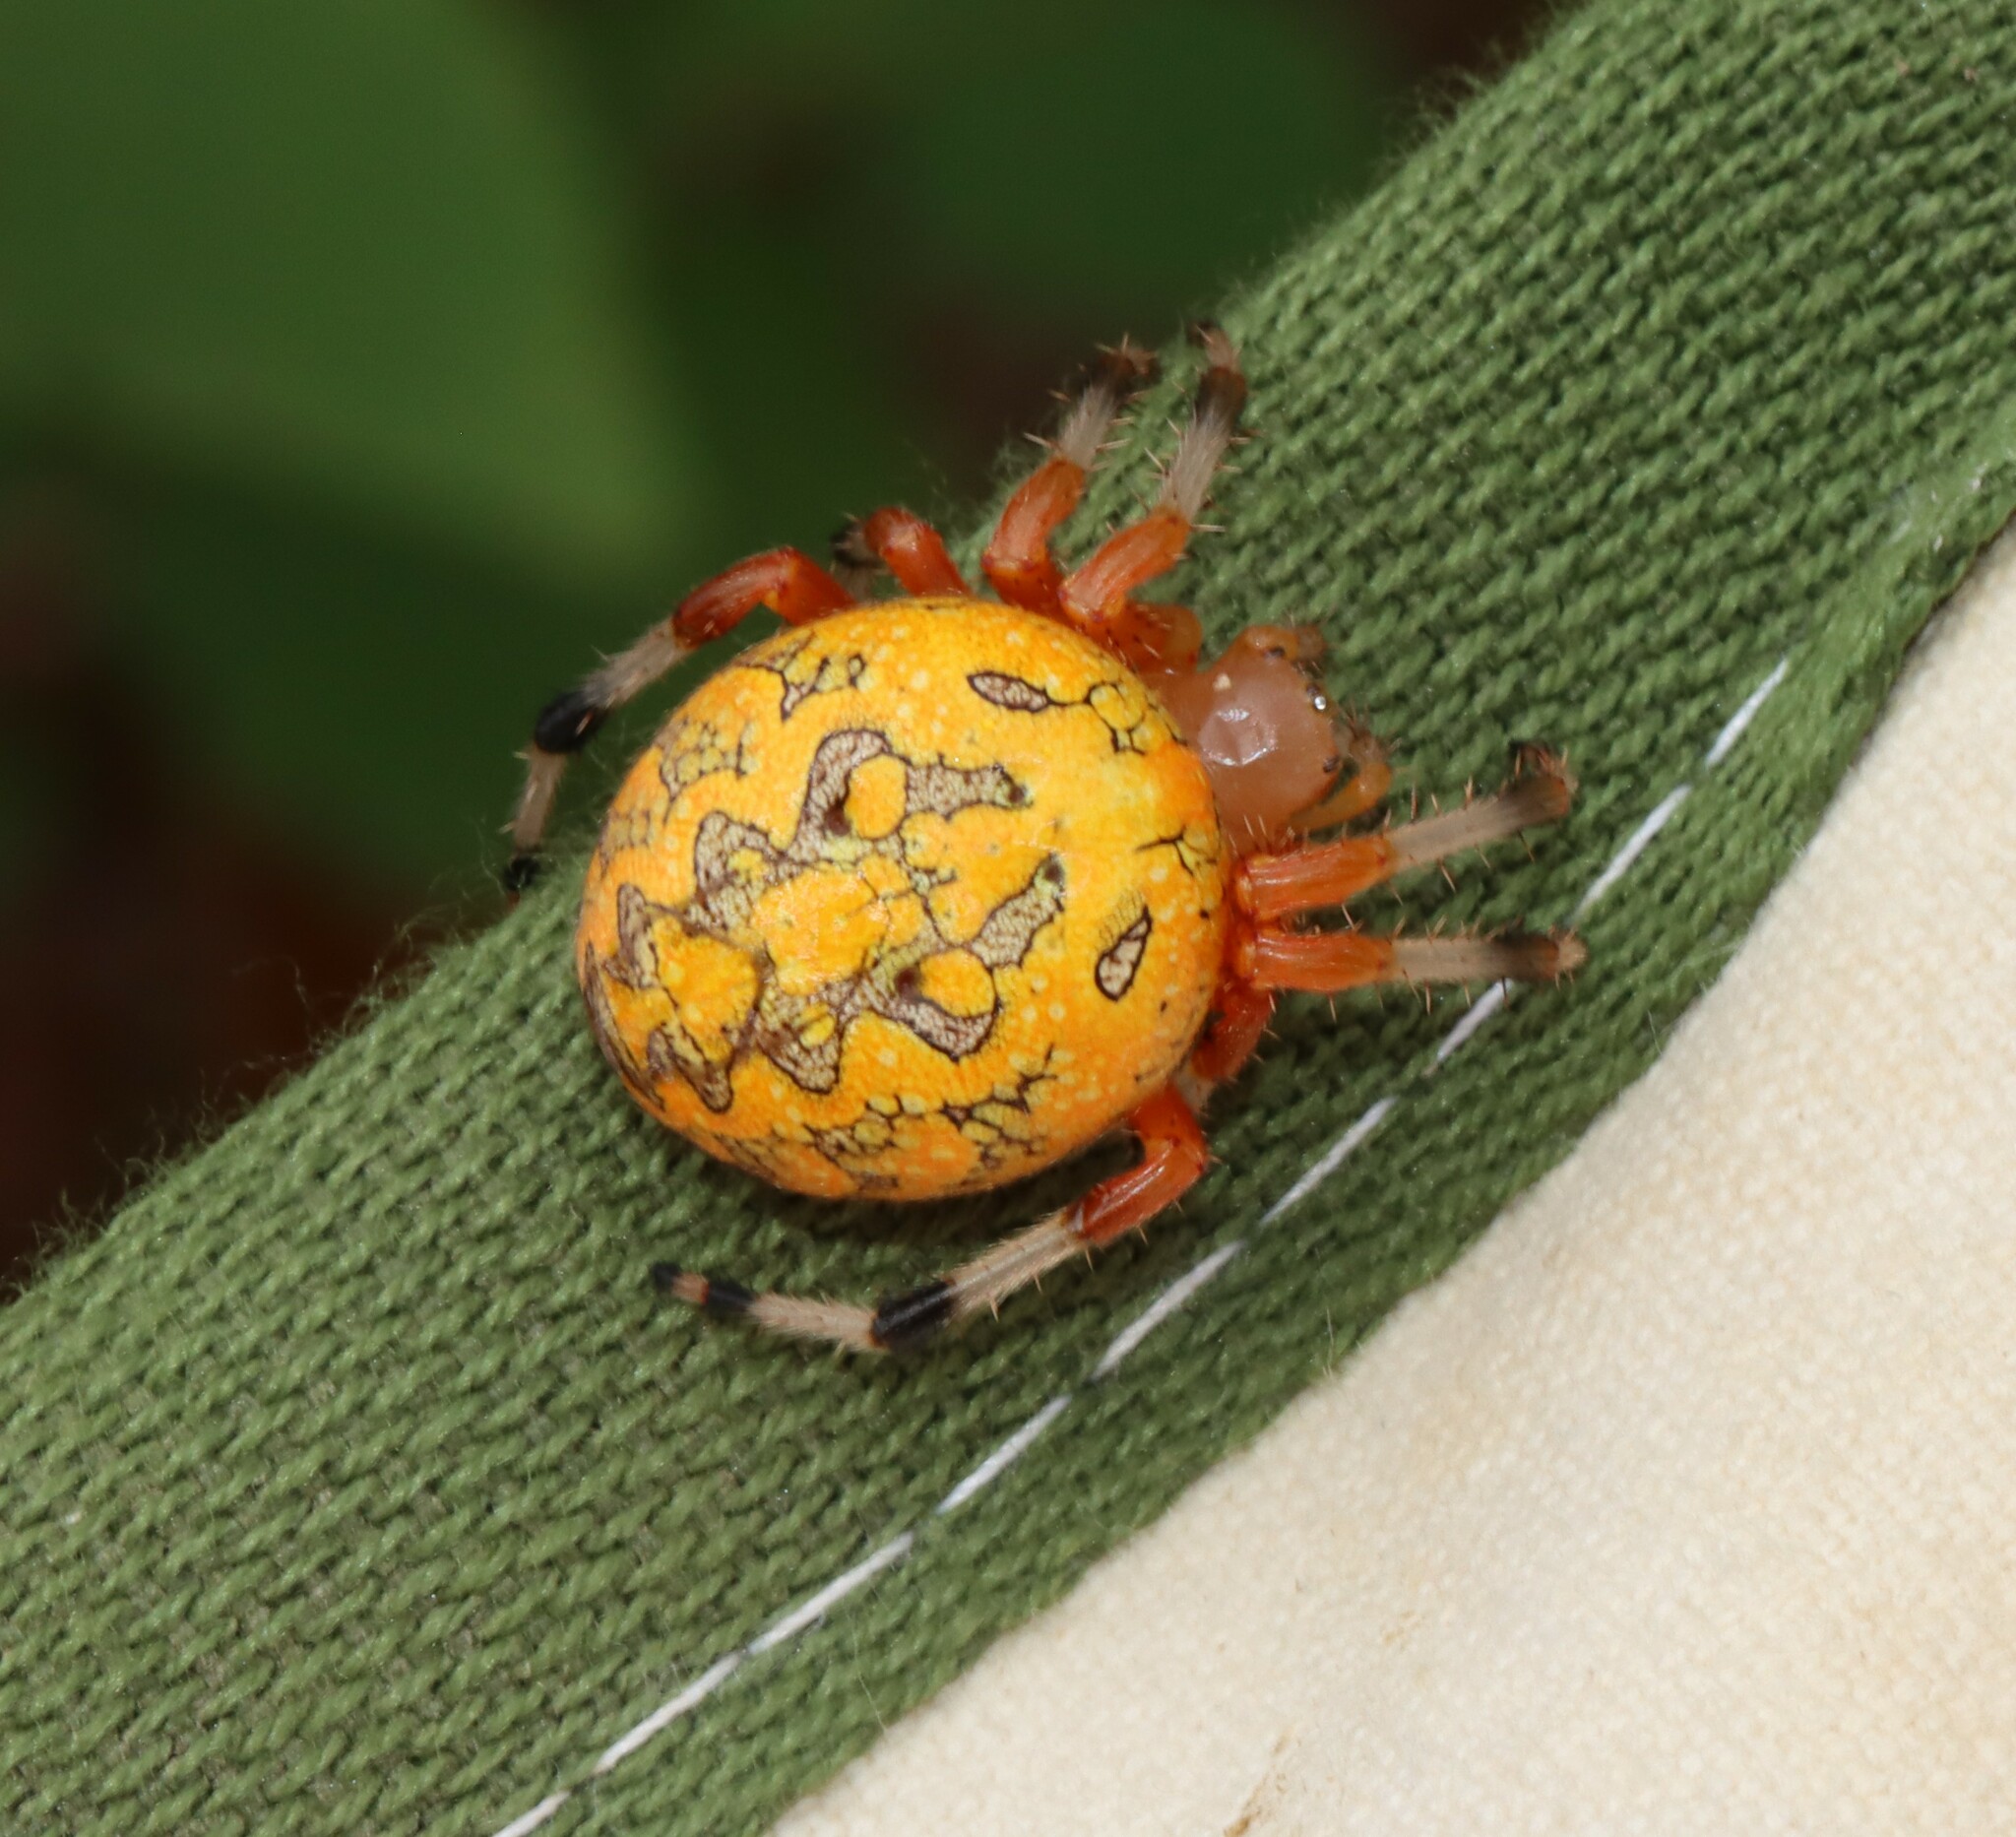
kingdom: Animalia
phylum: Arthropoda
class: Arachnida
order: Araneae
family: Araneidae
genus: Araneus
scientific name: Araneus marmoreus
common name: Marbled orbweaver
